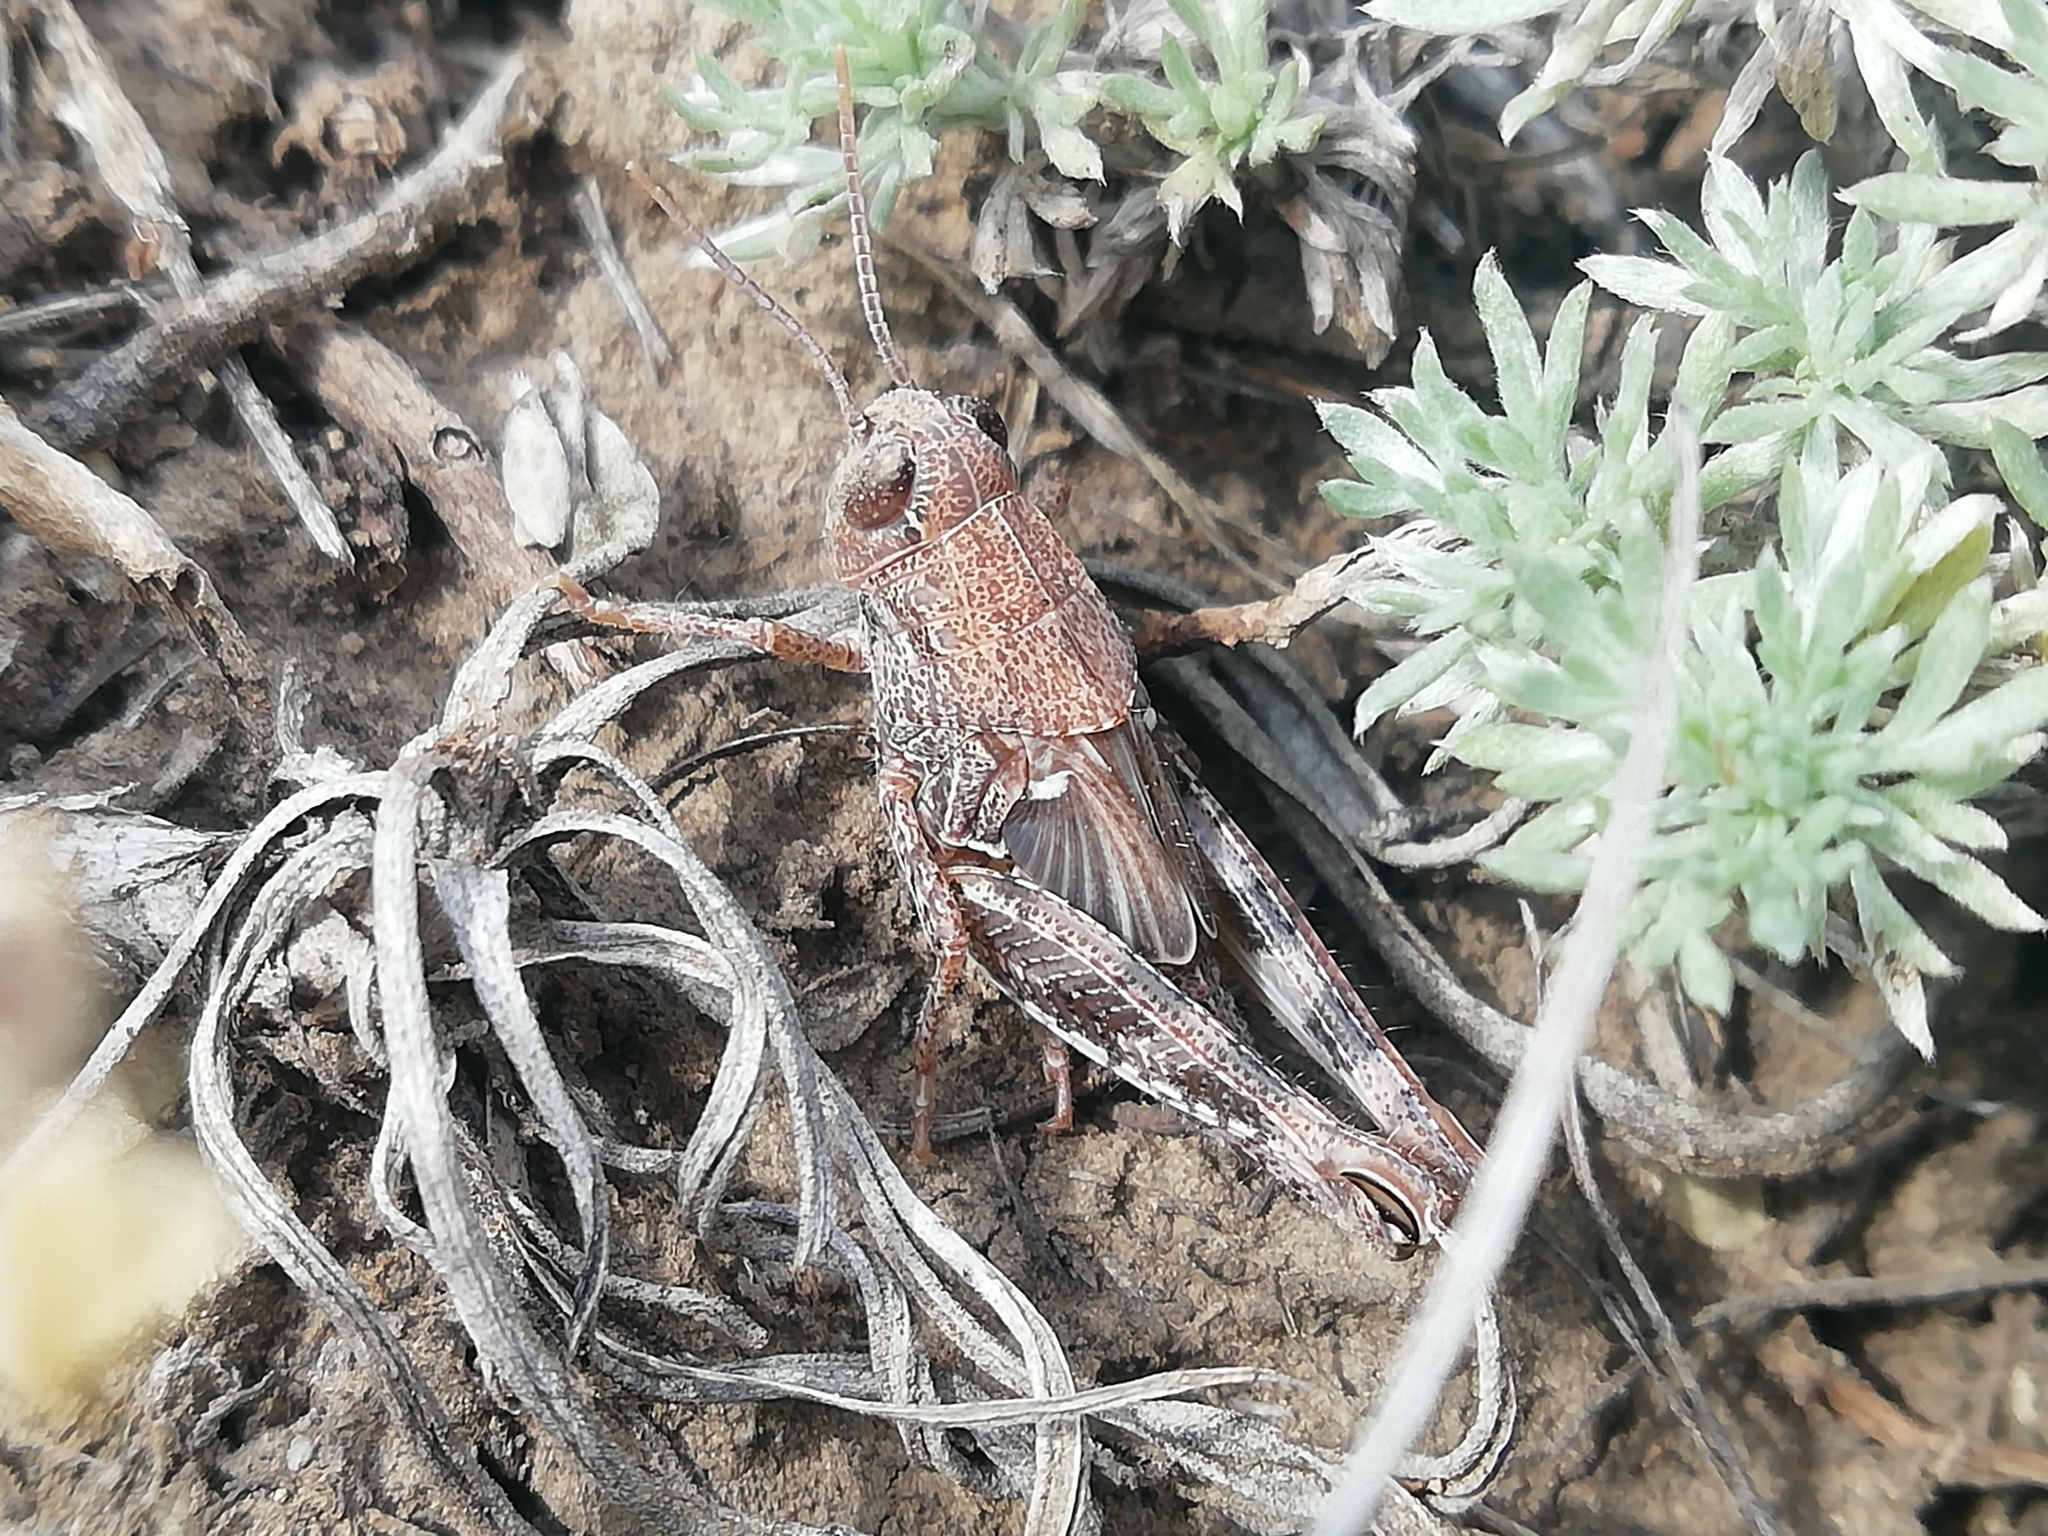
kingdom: Animalia
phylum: Arthropoda
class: Insecta
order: Orthoptera
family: Acrididae
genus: Calliptamus
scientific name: Calliptamus italicus
